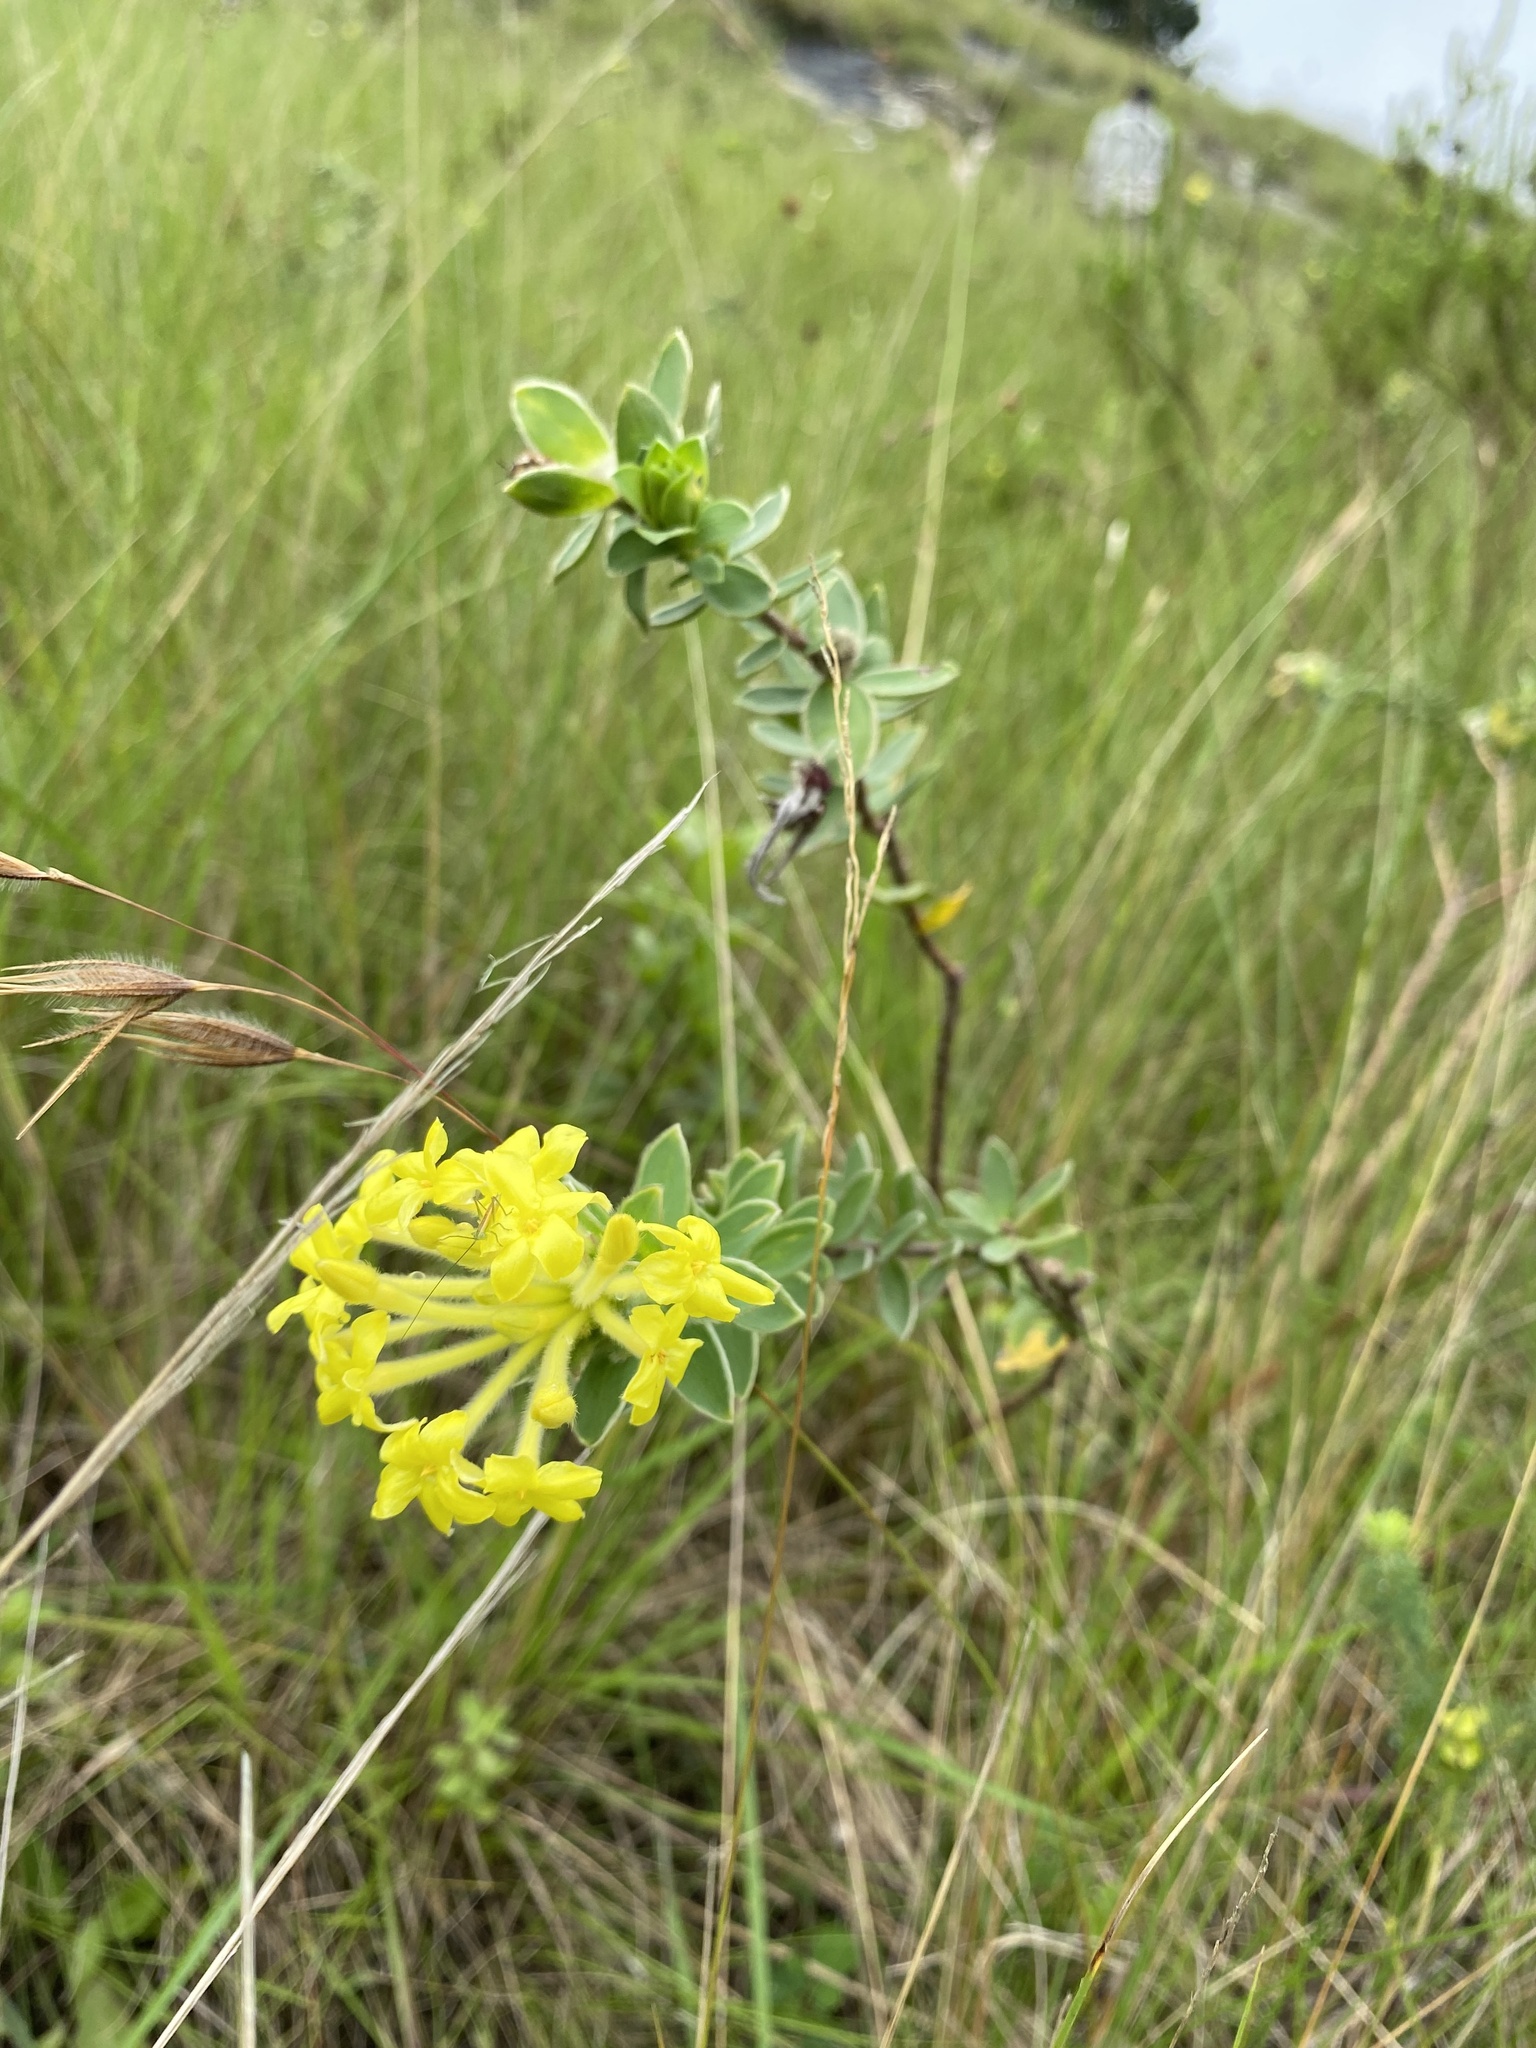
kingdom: Plantae
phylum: Tracheophyta
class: Magnoliopsida
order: Malvales
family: Thymelaeaceae
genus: Gnidia
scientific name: Gnidia anthylloides
